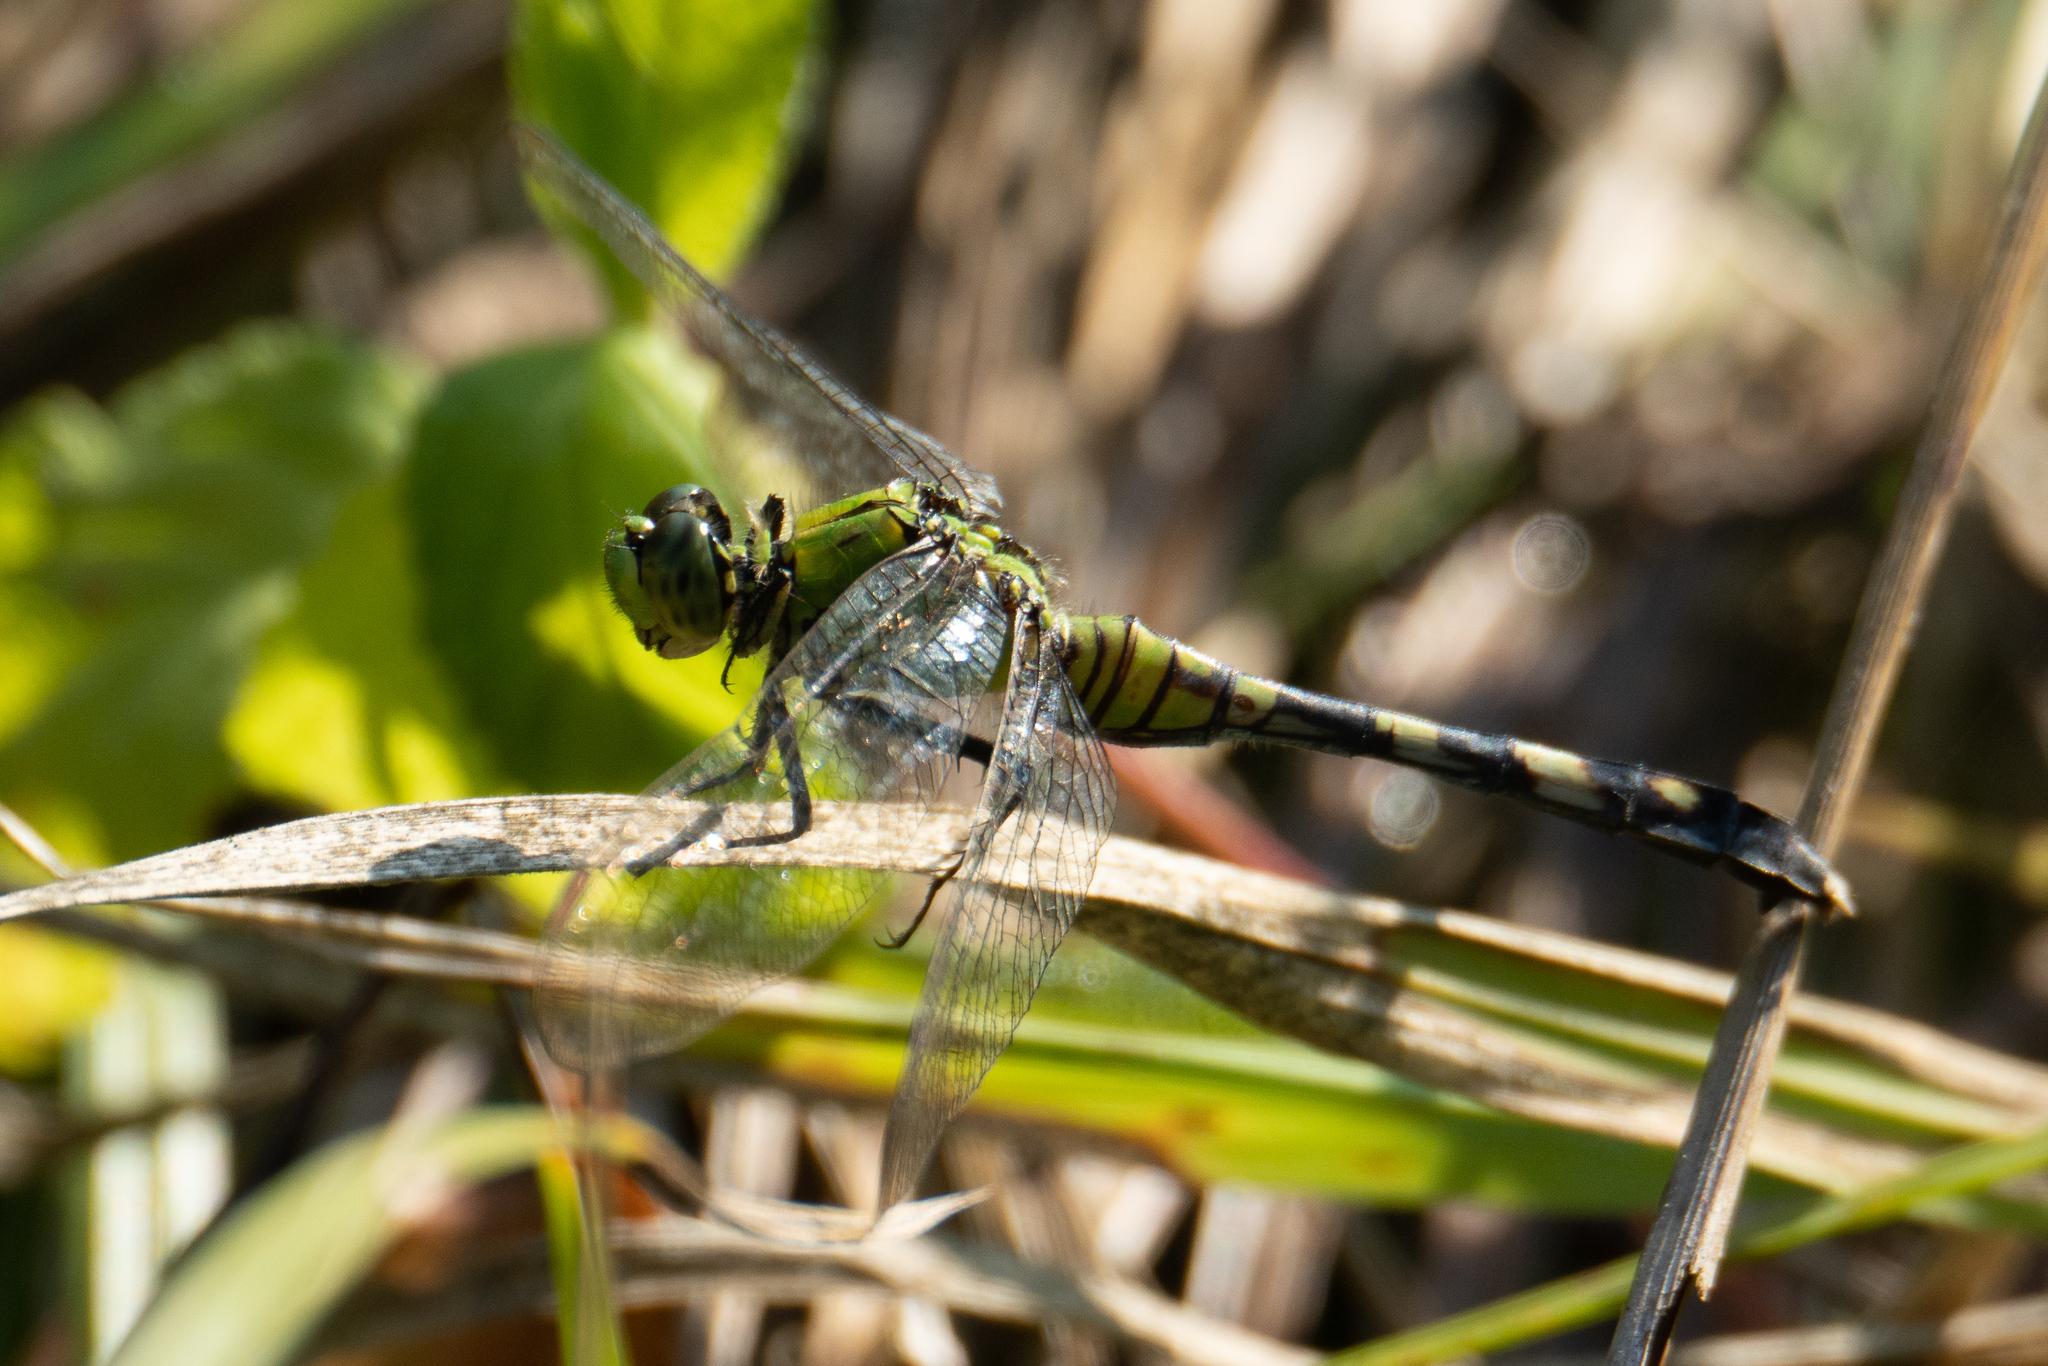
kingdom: Animalia
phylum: Arthropoda
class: Insecta
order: Odonata
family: Libellulidae
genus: Erythemis
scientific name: Erythemis simplicicollis
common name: Eastern pondhawk
